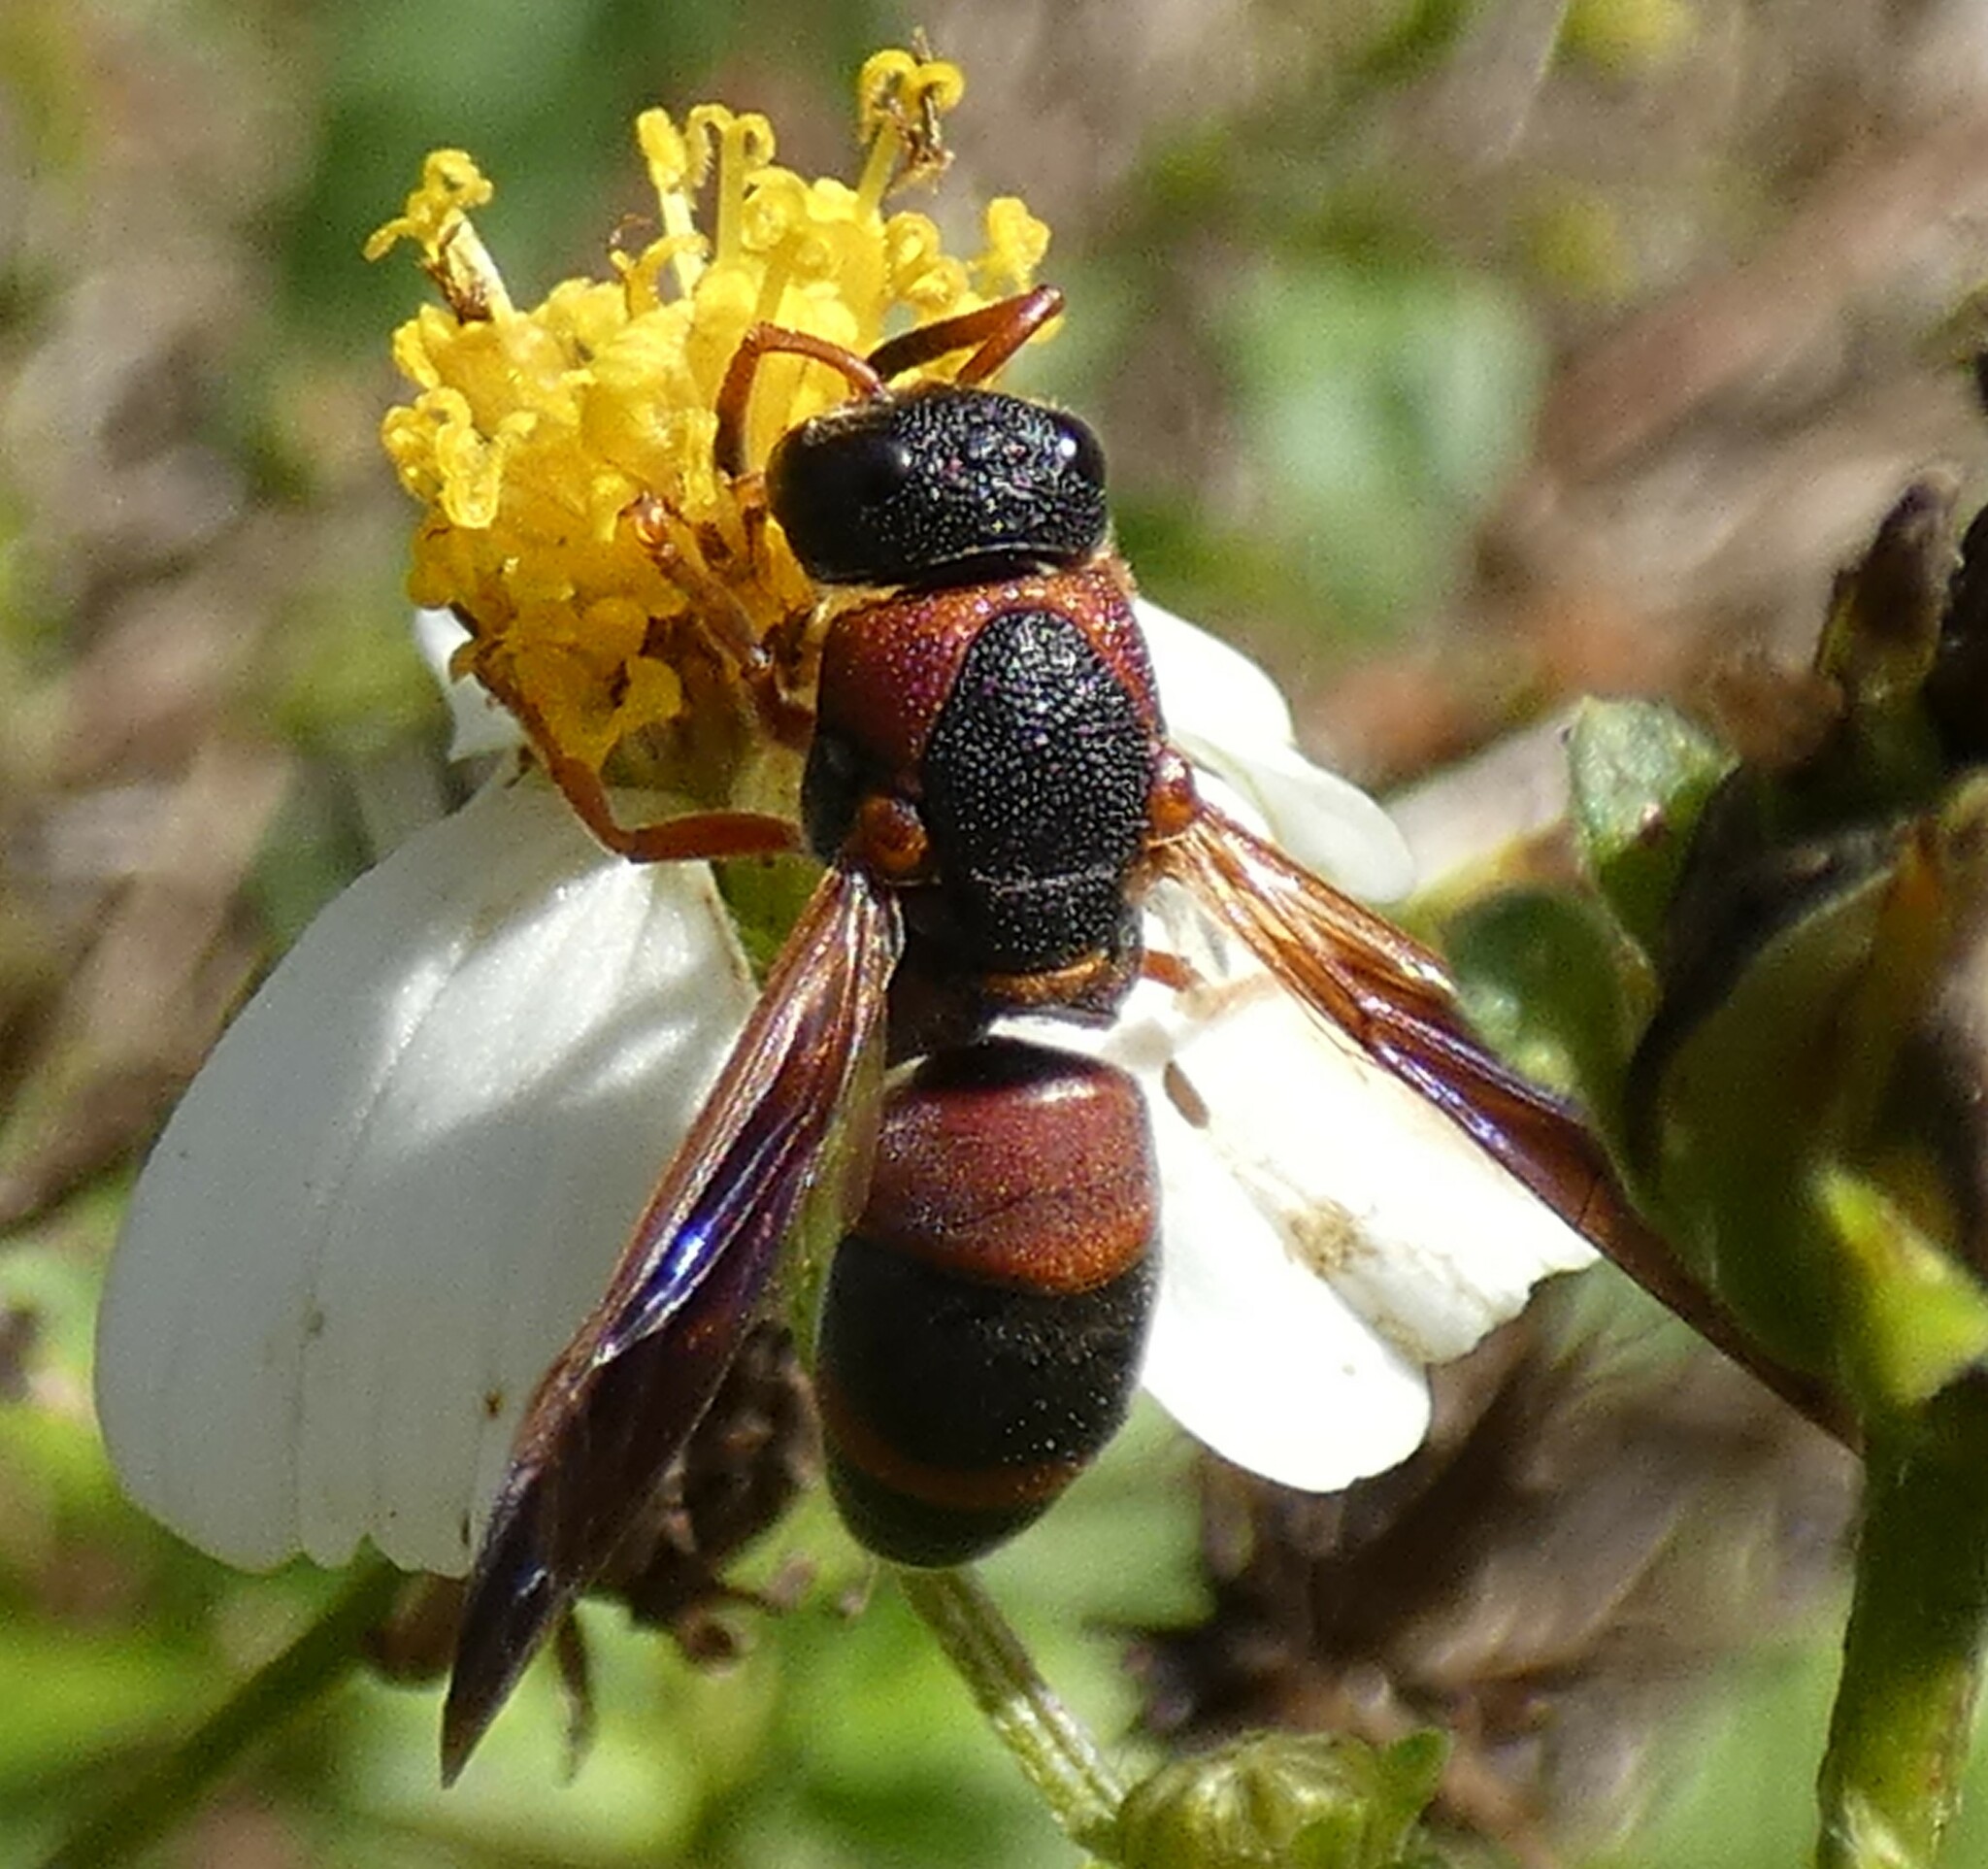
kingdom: Animalia
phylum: Arthropoda
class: Insecta
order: Hymenoptera
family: Eumenidae
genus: Pachodynerus
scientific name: Pachodynerus erynnis
